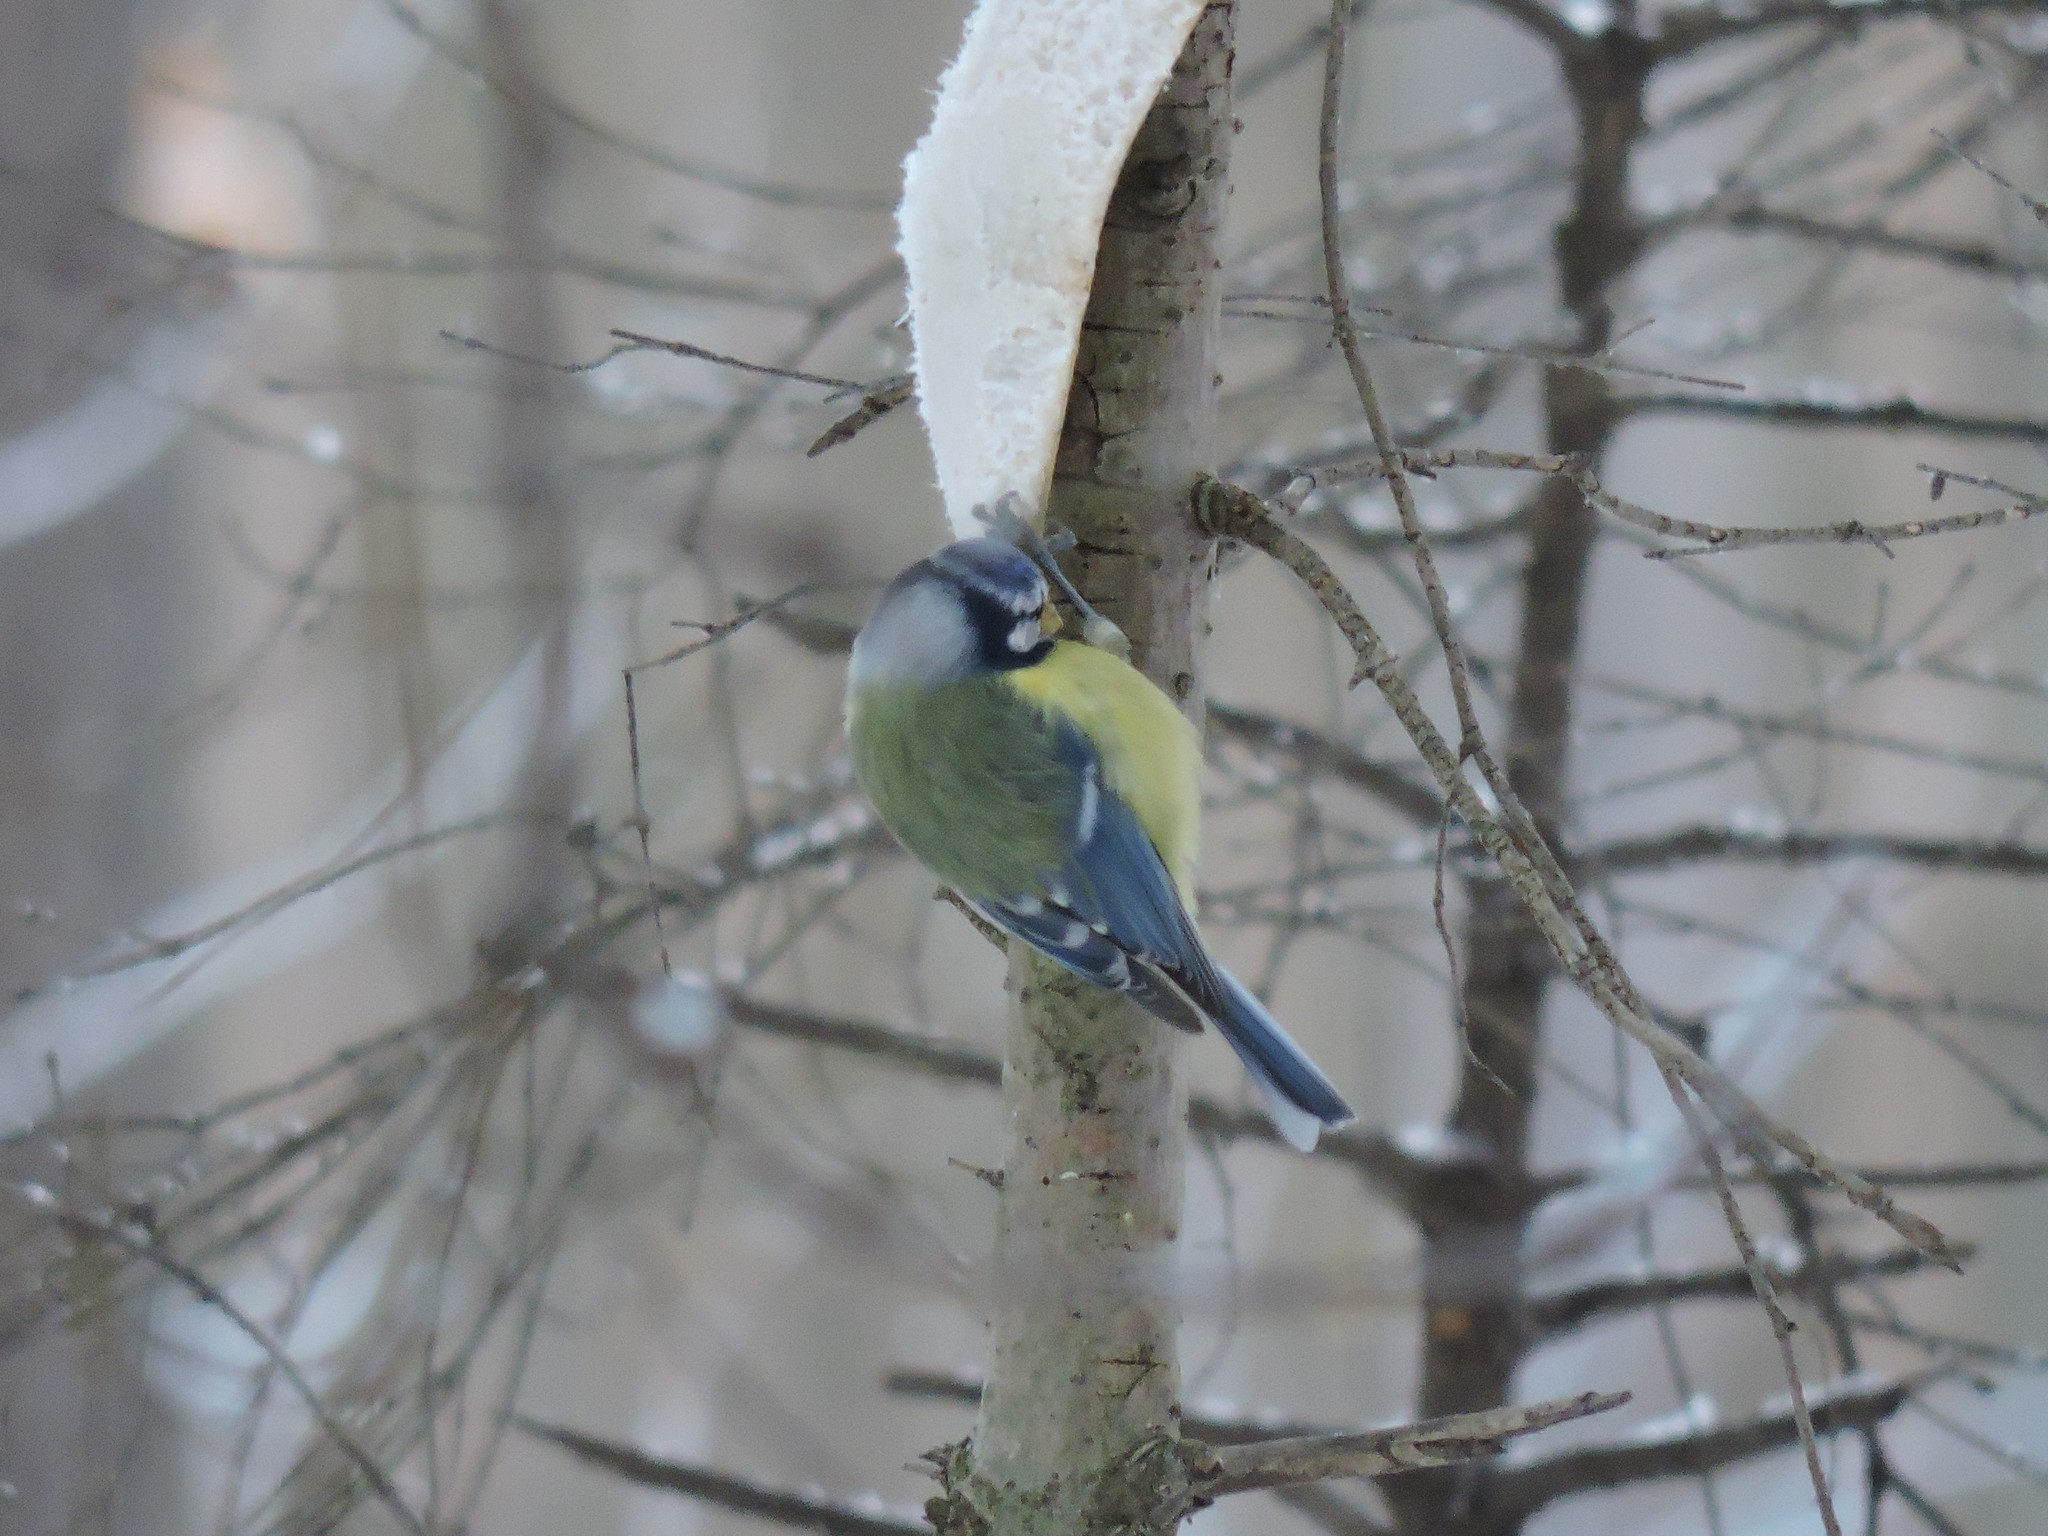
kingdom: Animalia
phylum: Chordata
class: Aves
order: Passeriformes
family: Paridae
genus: Cyanistes
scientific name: Cyanistes caeruleus
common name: Eurasian blue tit
